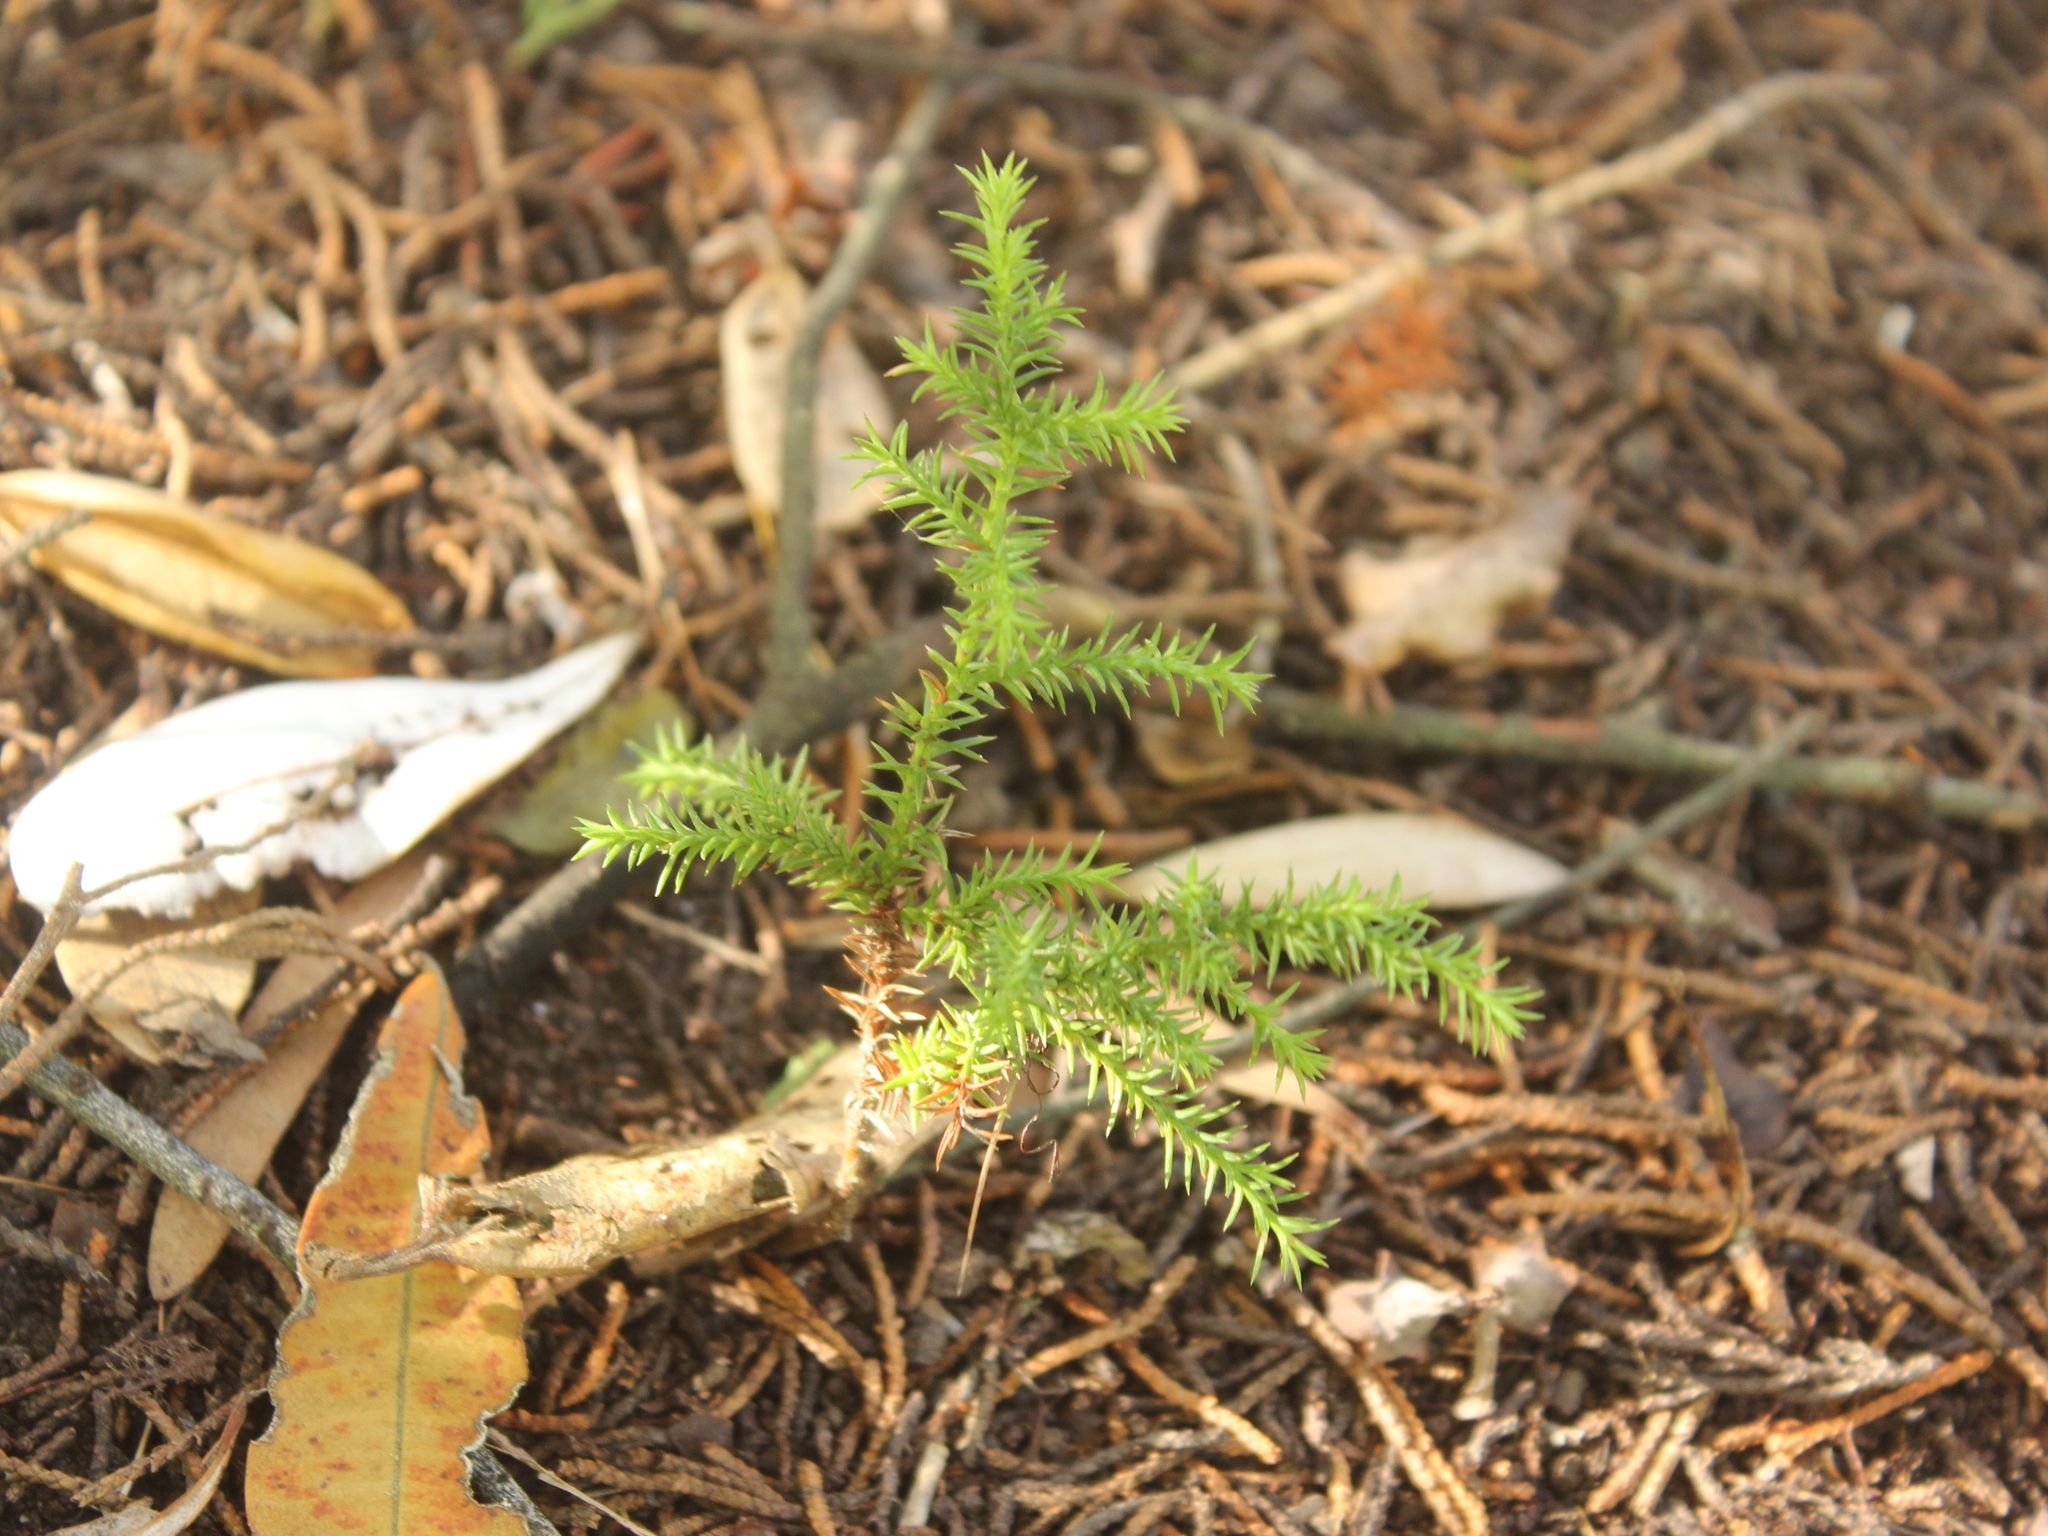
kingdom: Plantae
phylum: Tracheophyta
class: Pinopsida
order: Pinales
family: Cupressaceae
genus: Cupressus
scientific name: Cupressus macrocarpa
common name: Monterey cypress
